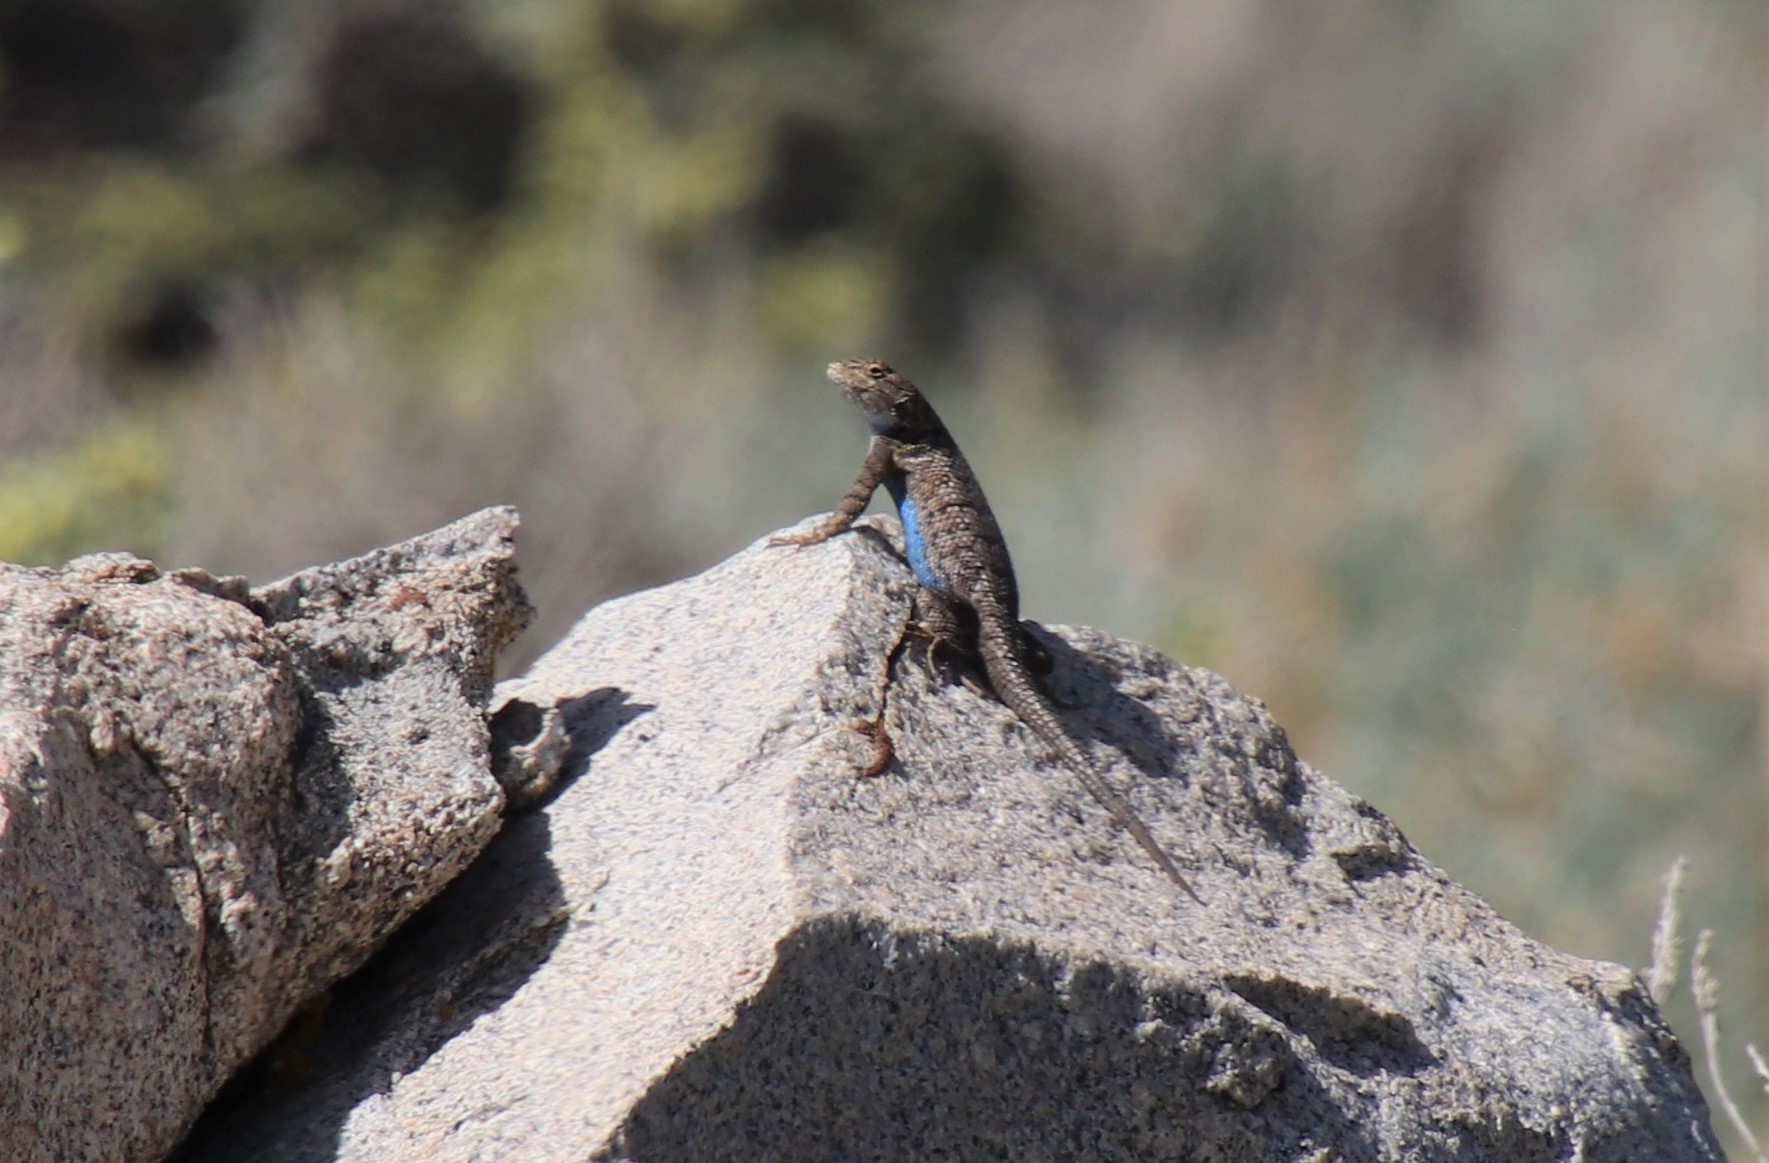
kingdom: Animalia
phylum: Chordata
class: Squamata
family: Phrynosomatidae
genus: Sceloporus
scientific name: Sceloporus occidentalis
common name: Western fence lizard
